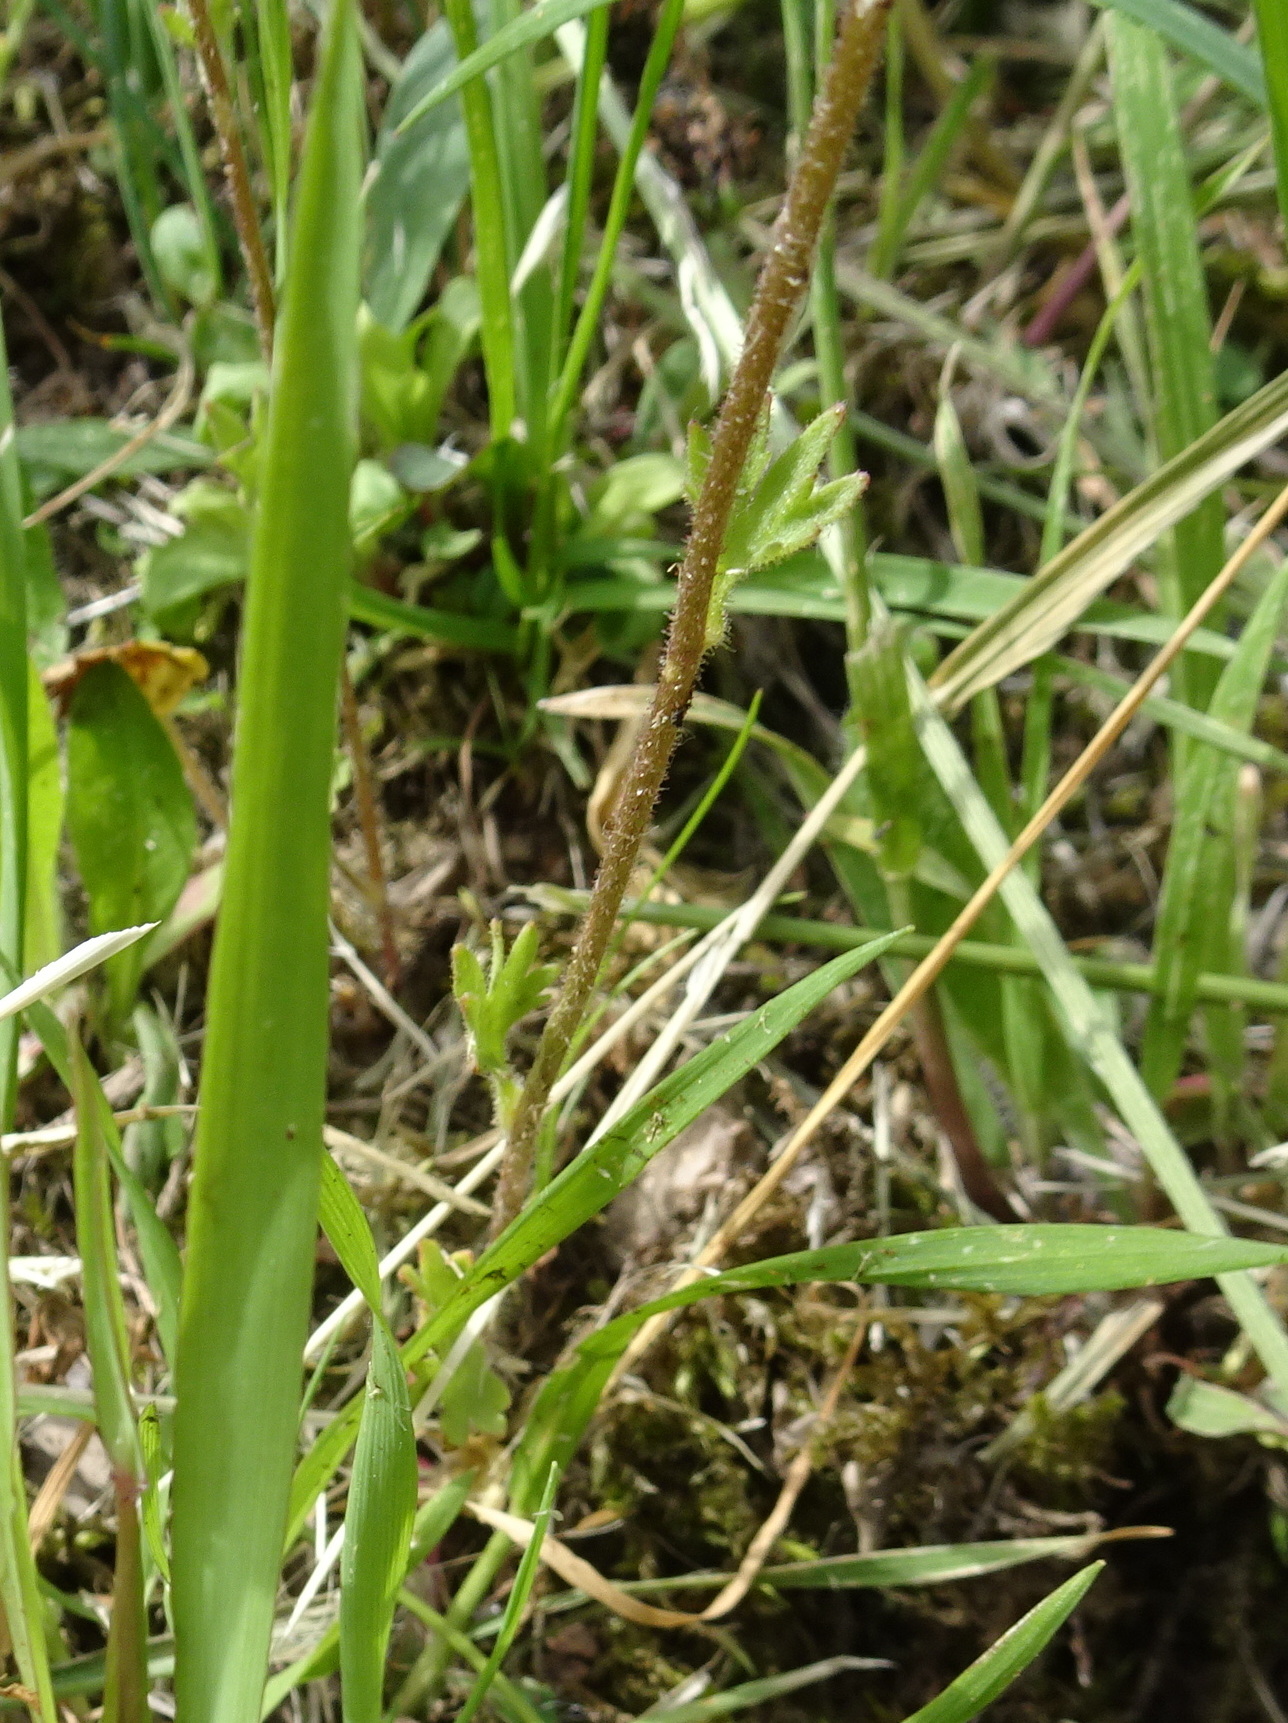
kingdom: Plantae
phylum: Tracheophyta
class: Magnoliopsida
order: Saxifragales
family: Saxifragaceae
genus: Saxifraga
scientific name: Saxifraga granulata
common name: Meadow saxifrage
